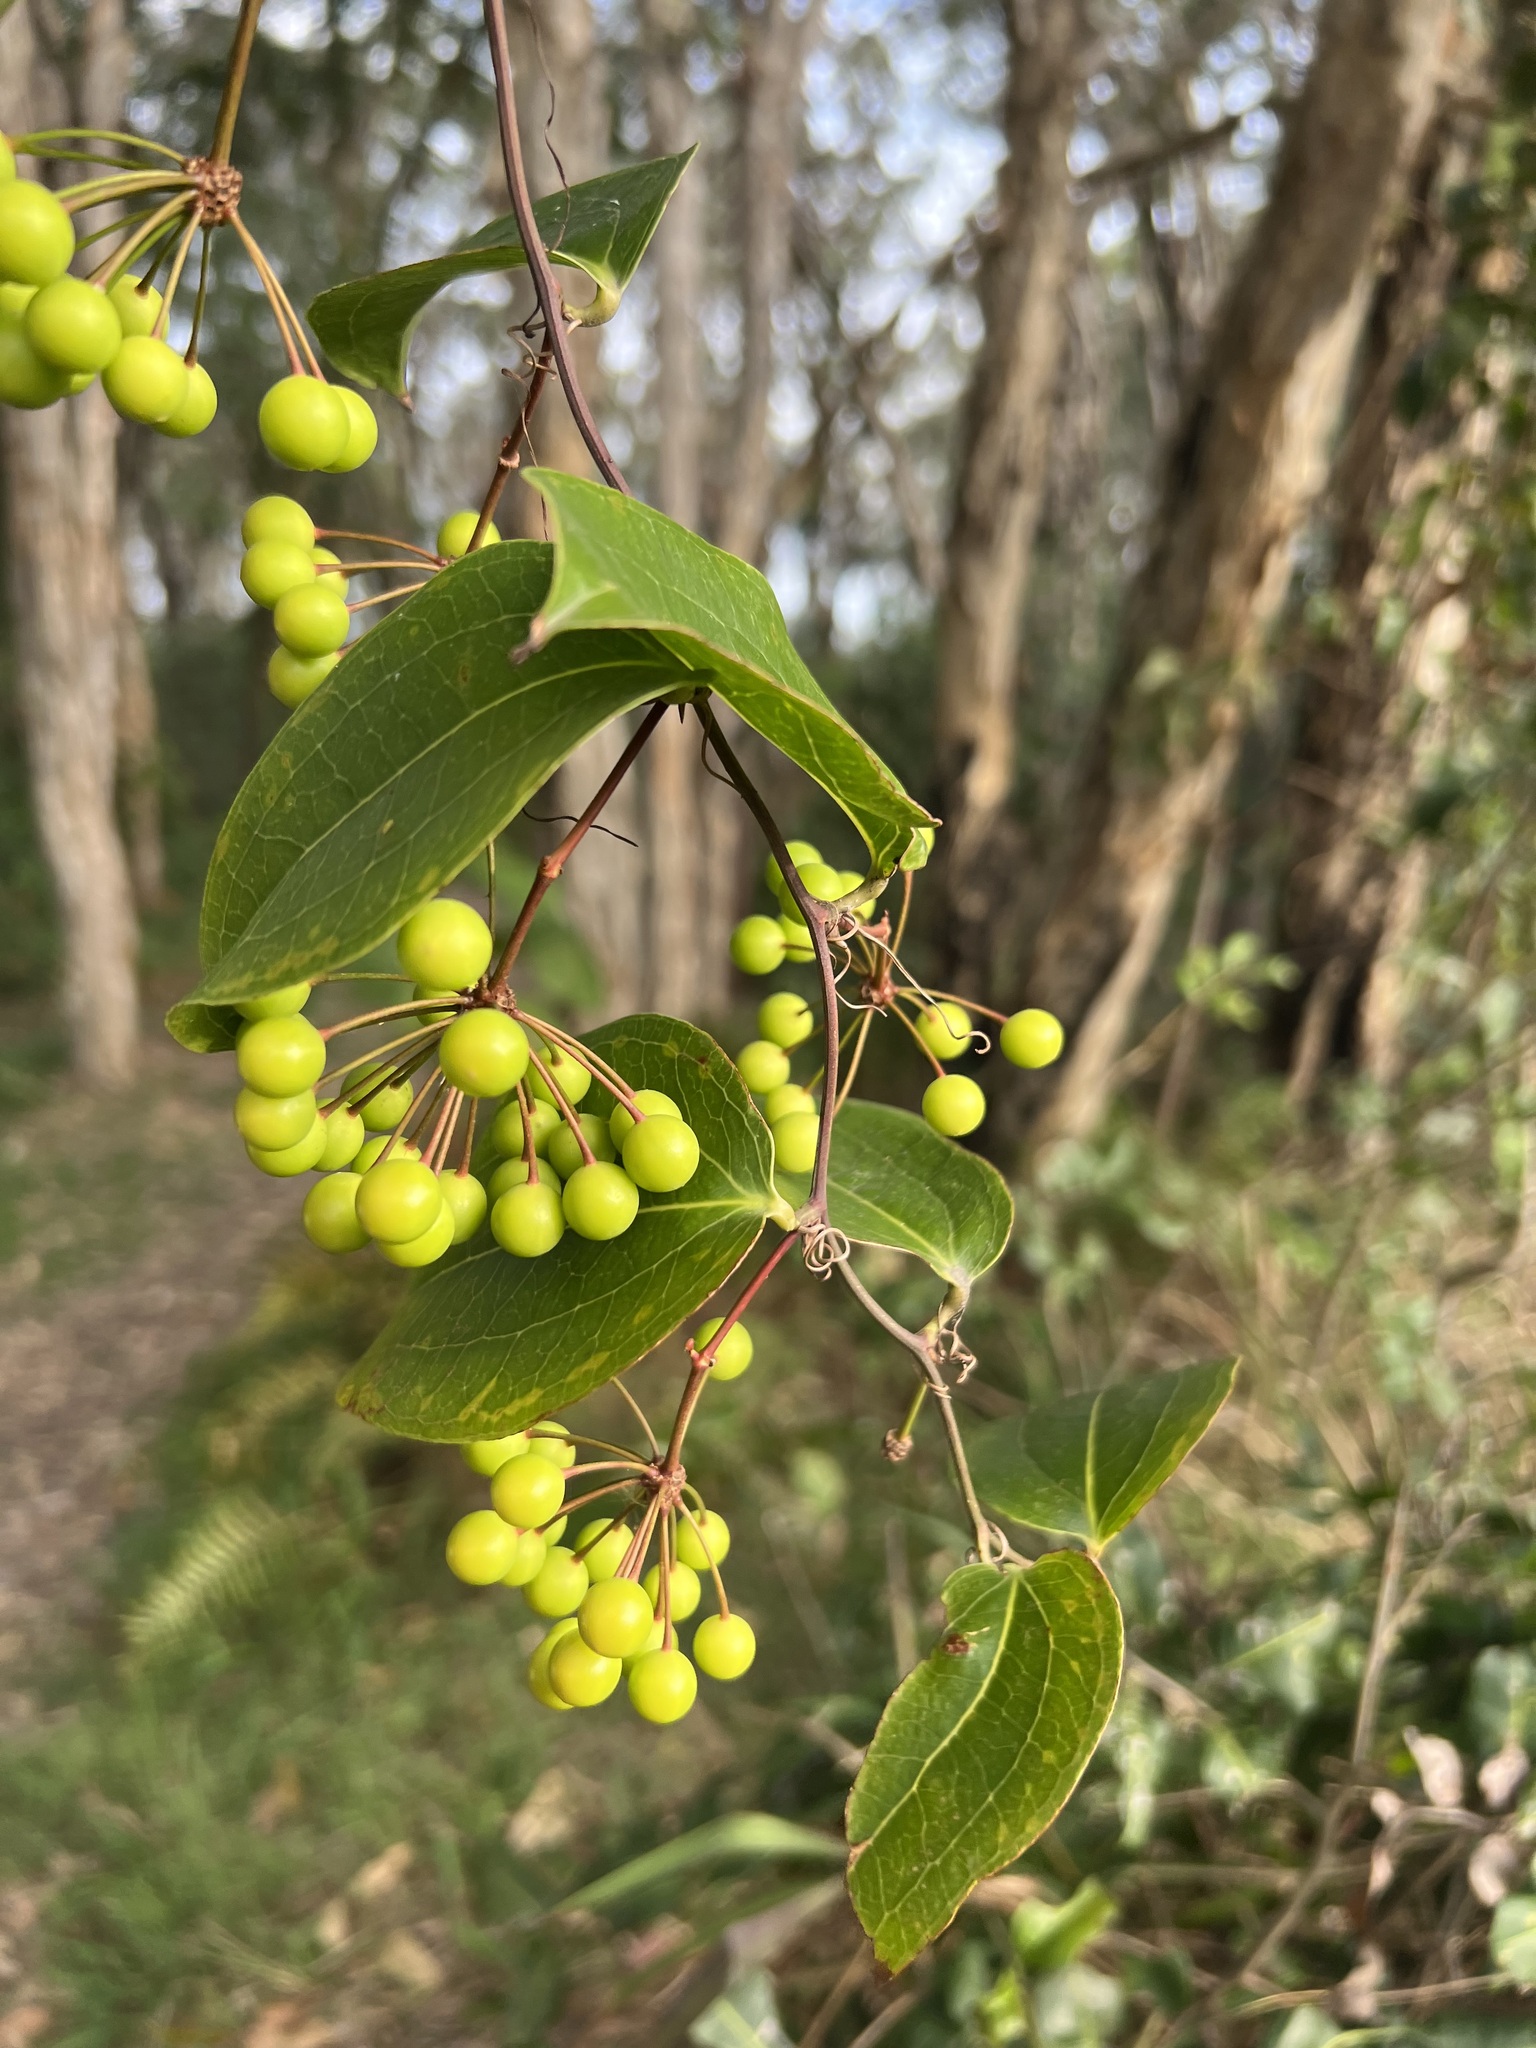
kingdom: Plantae
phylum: Tracheophyta
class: Liliopsida
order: Liliales
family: Smilacaceae
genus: Smilax
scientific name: Smilax australis
